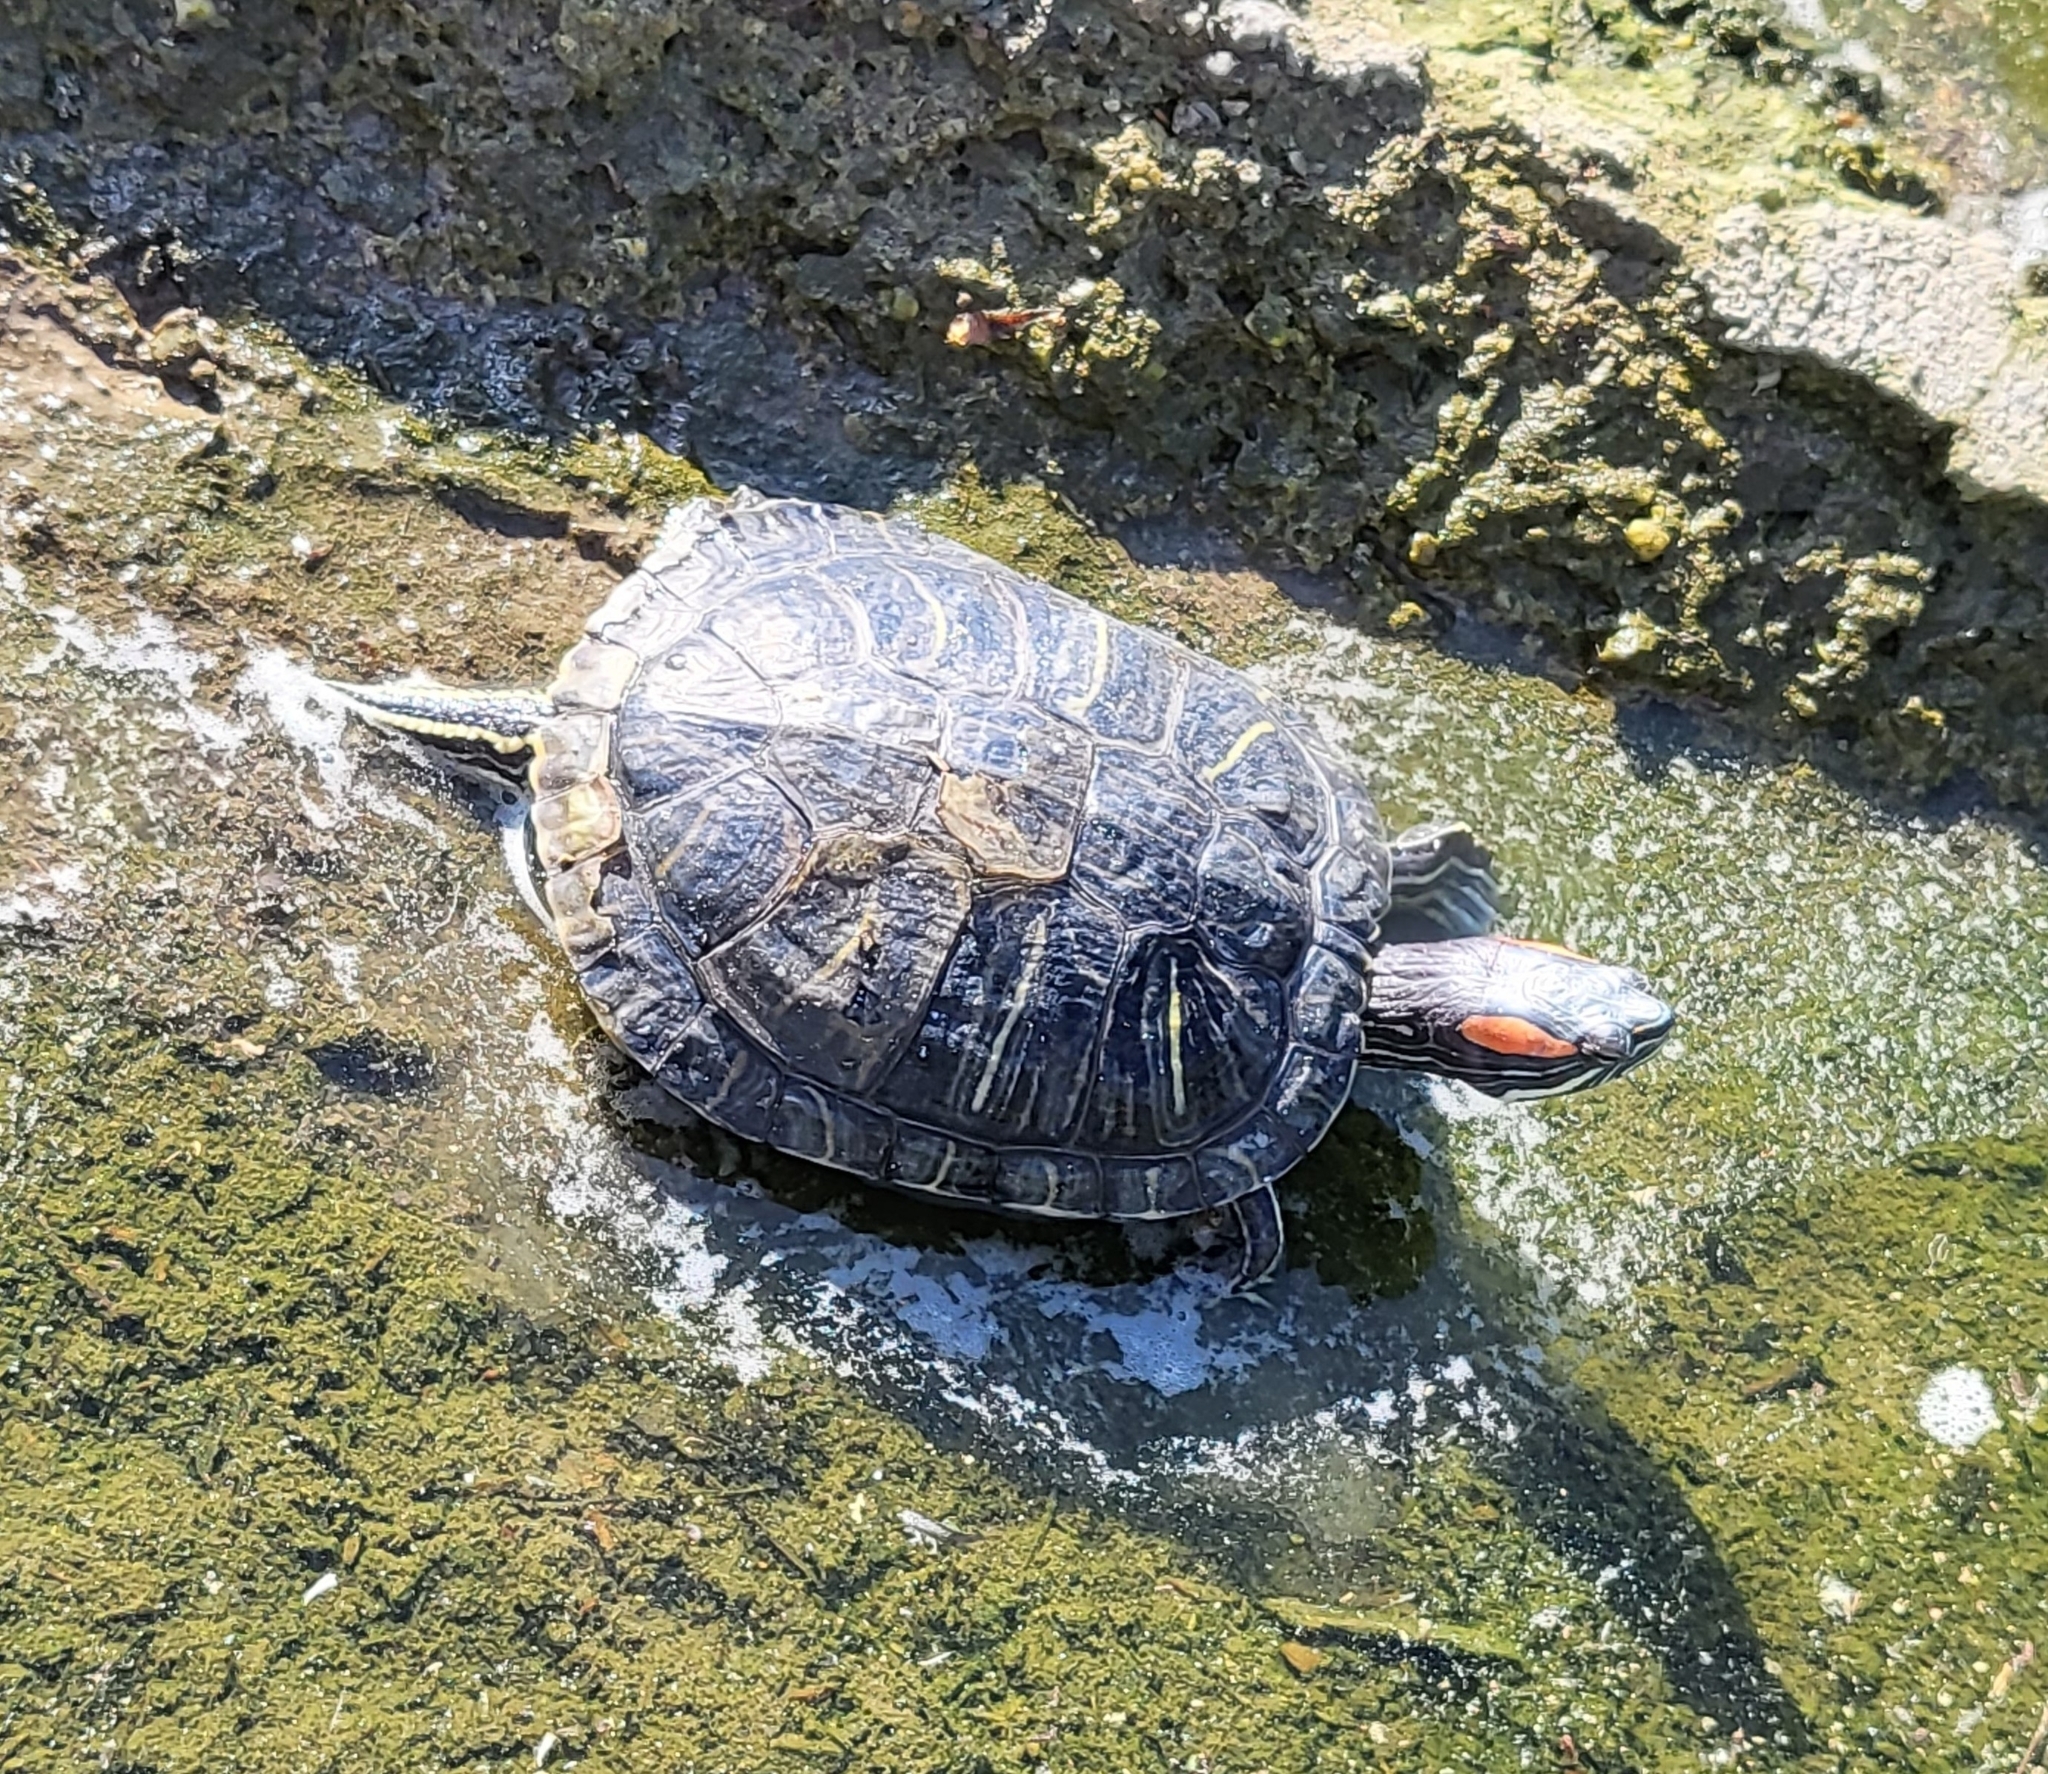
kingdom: Animalia
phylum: Chordata
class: Testudines
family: Emydidae
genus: Trachemys
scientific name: Trachemys scripta
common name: Slider
